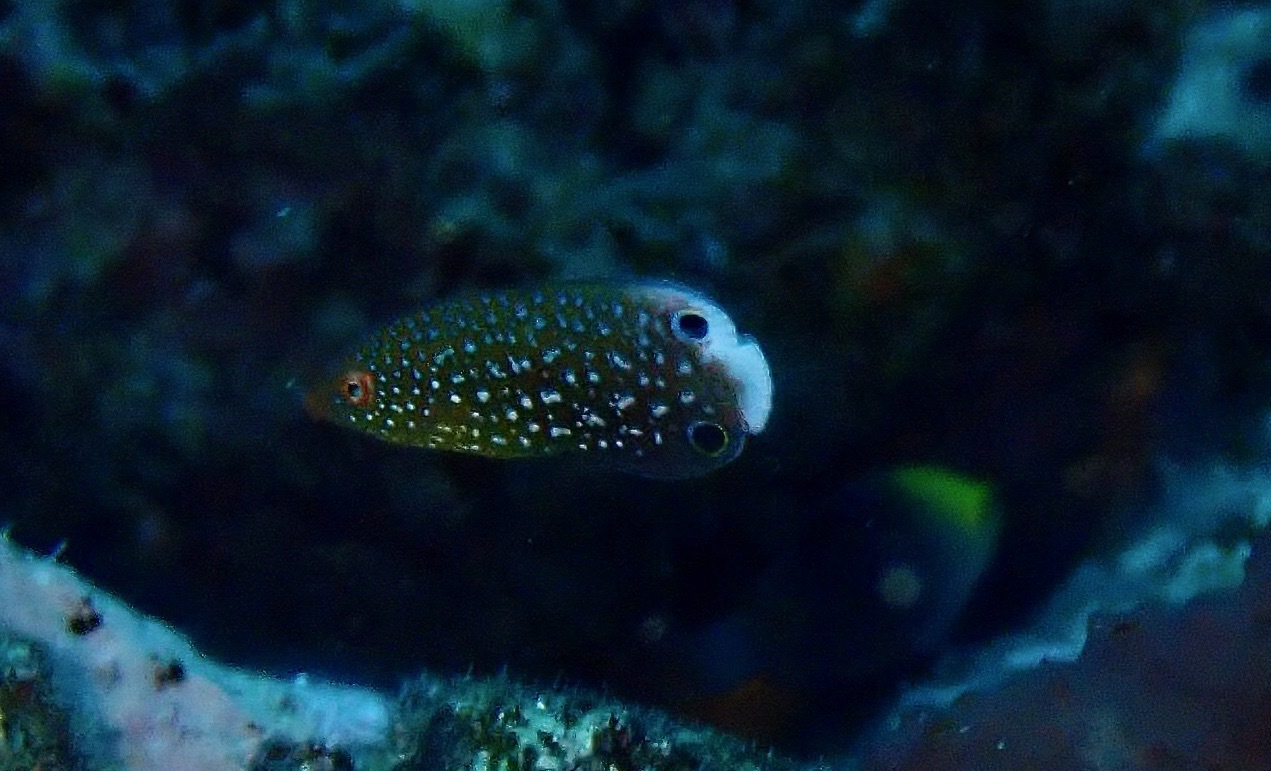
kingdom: Animalia
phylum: Chordata
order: Perciformes
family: Labridae
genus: Anampses
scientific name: Anampses twistii
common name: Yellowbreasted wrasse
